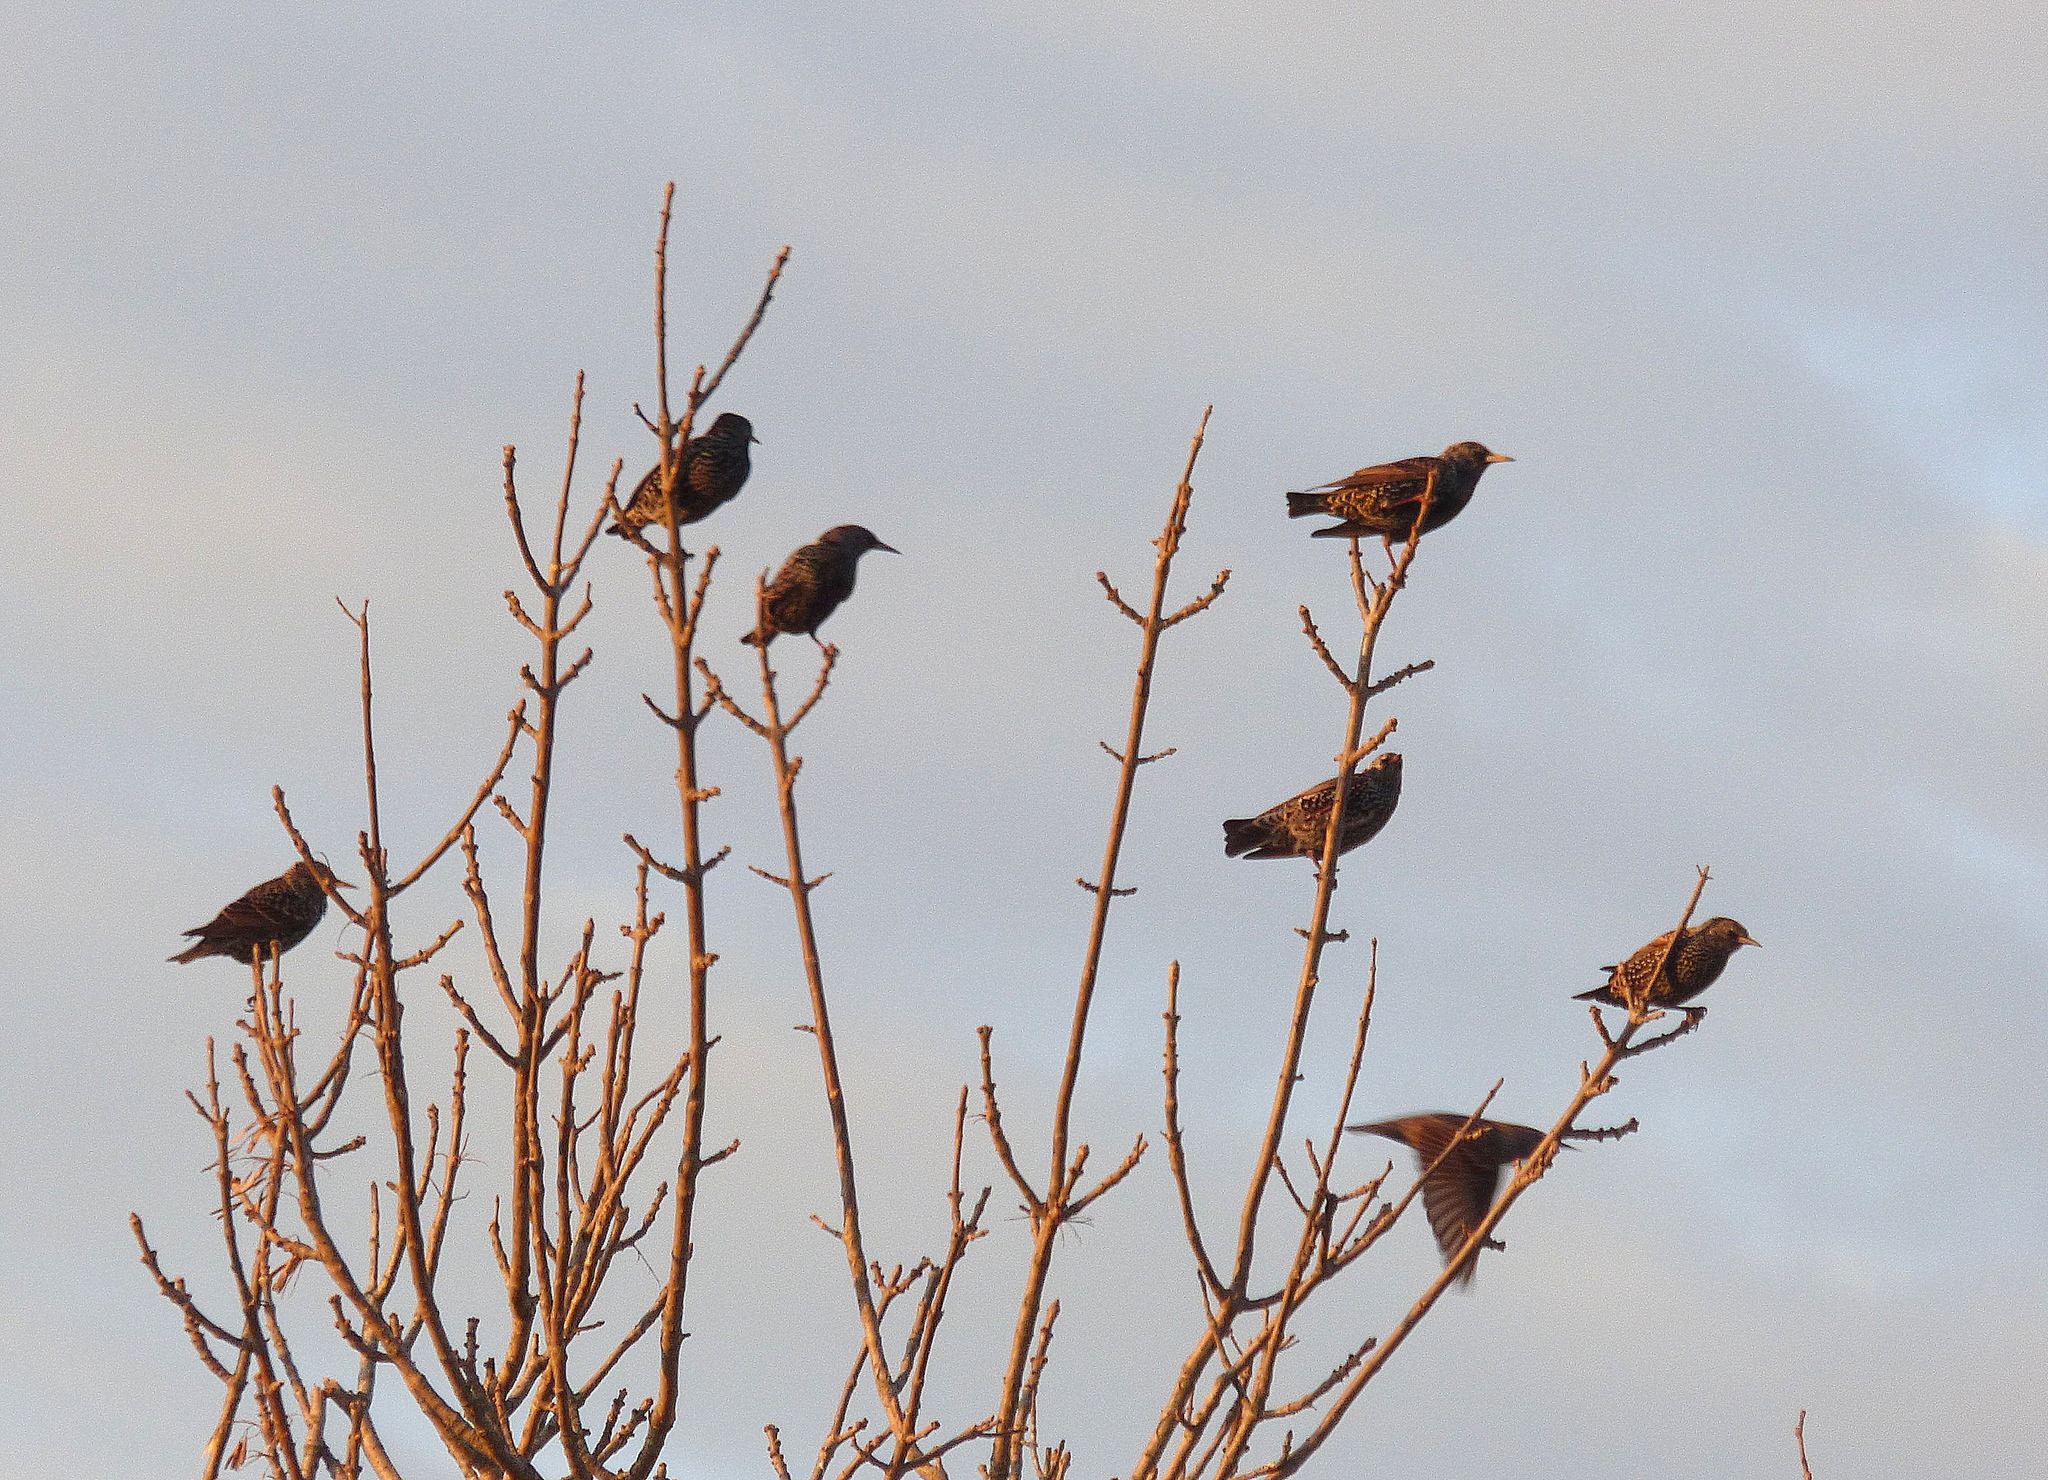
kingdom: Animalia
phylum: Chordata
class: Aves
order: Passeriformes
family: Sturnidae
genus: Sturnus
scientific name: Sturnus vulgaris
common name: Common starling
